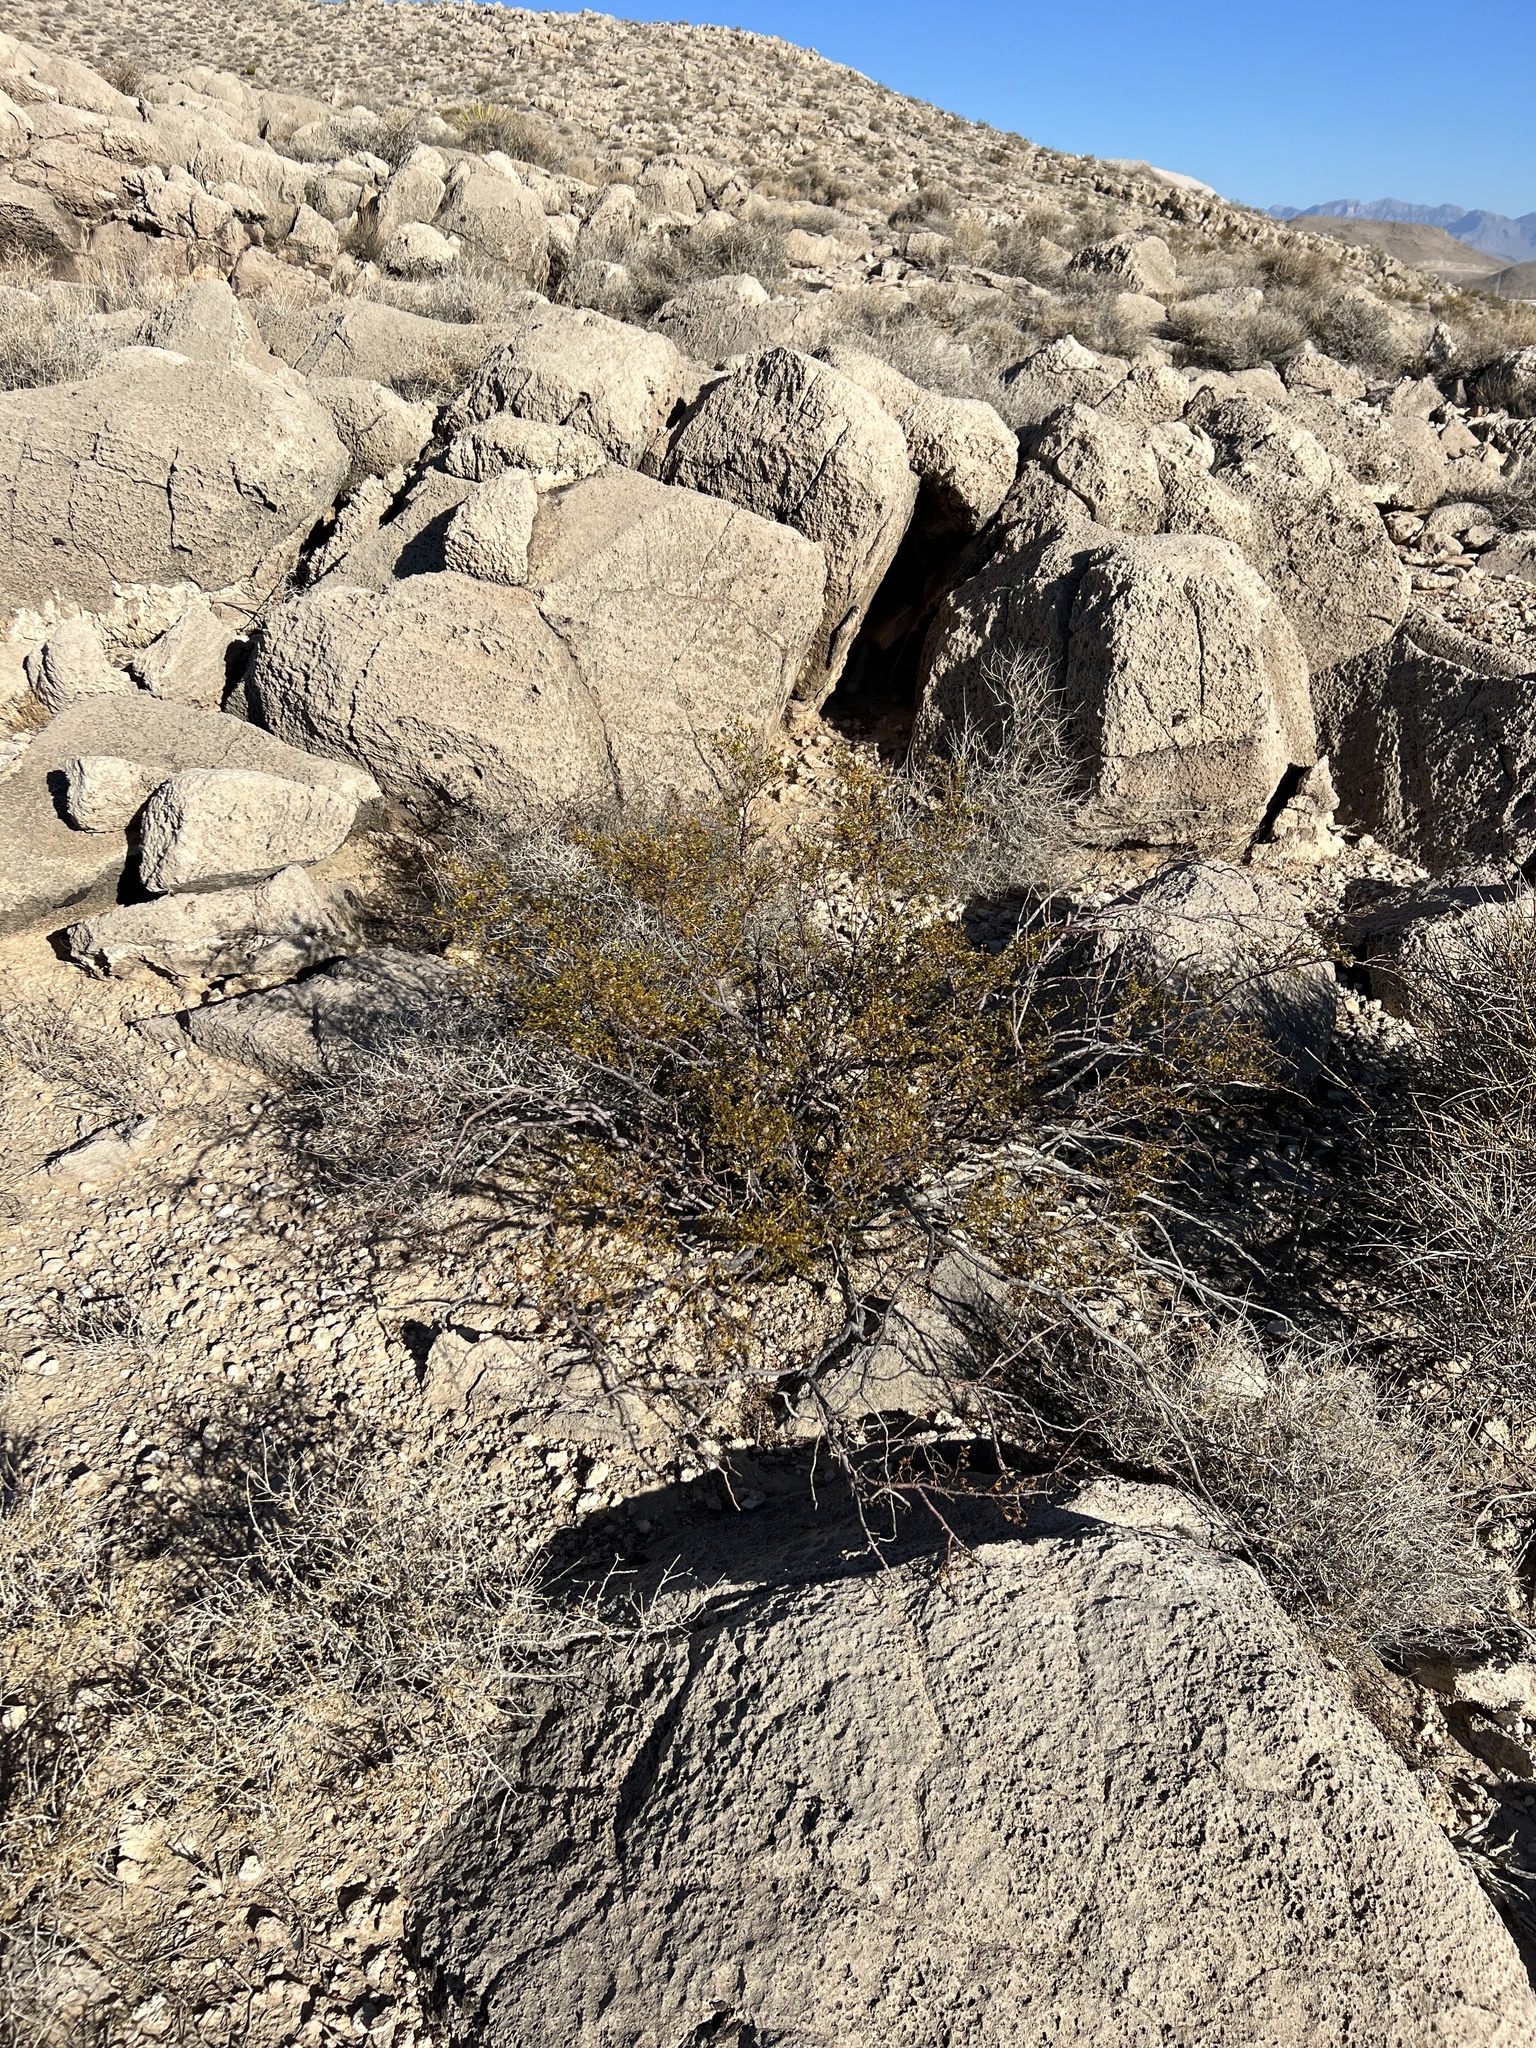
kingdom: Plantae
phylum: Tracheophyta
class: Magnoliopsida
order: Zygophyllales
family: Zygophyllaceae
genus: Larrea
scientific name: Larrea tridentata
